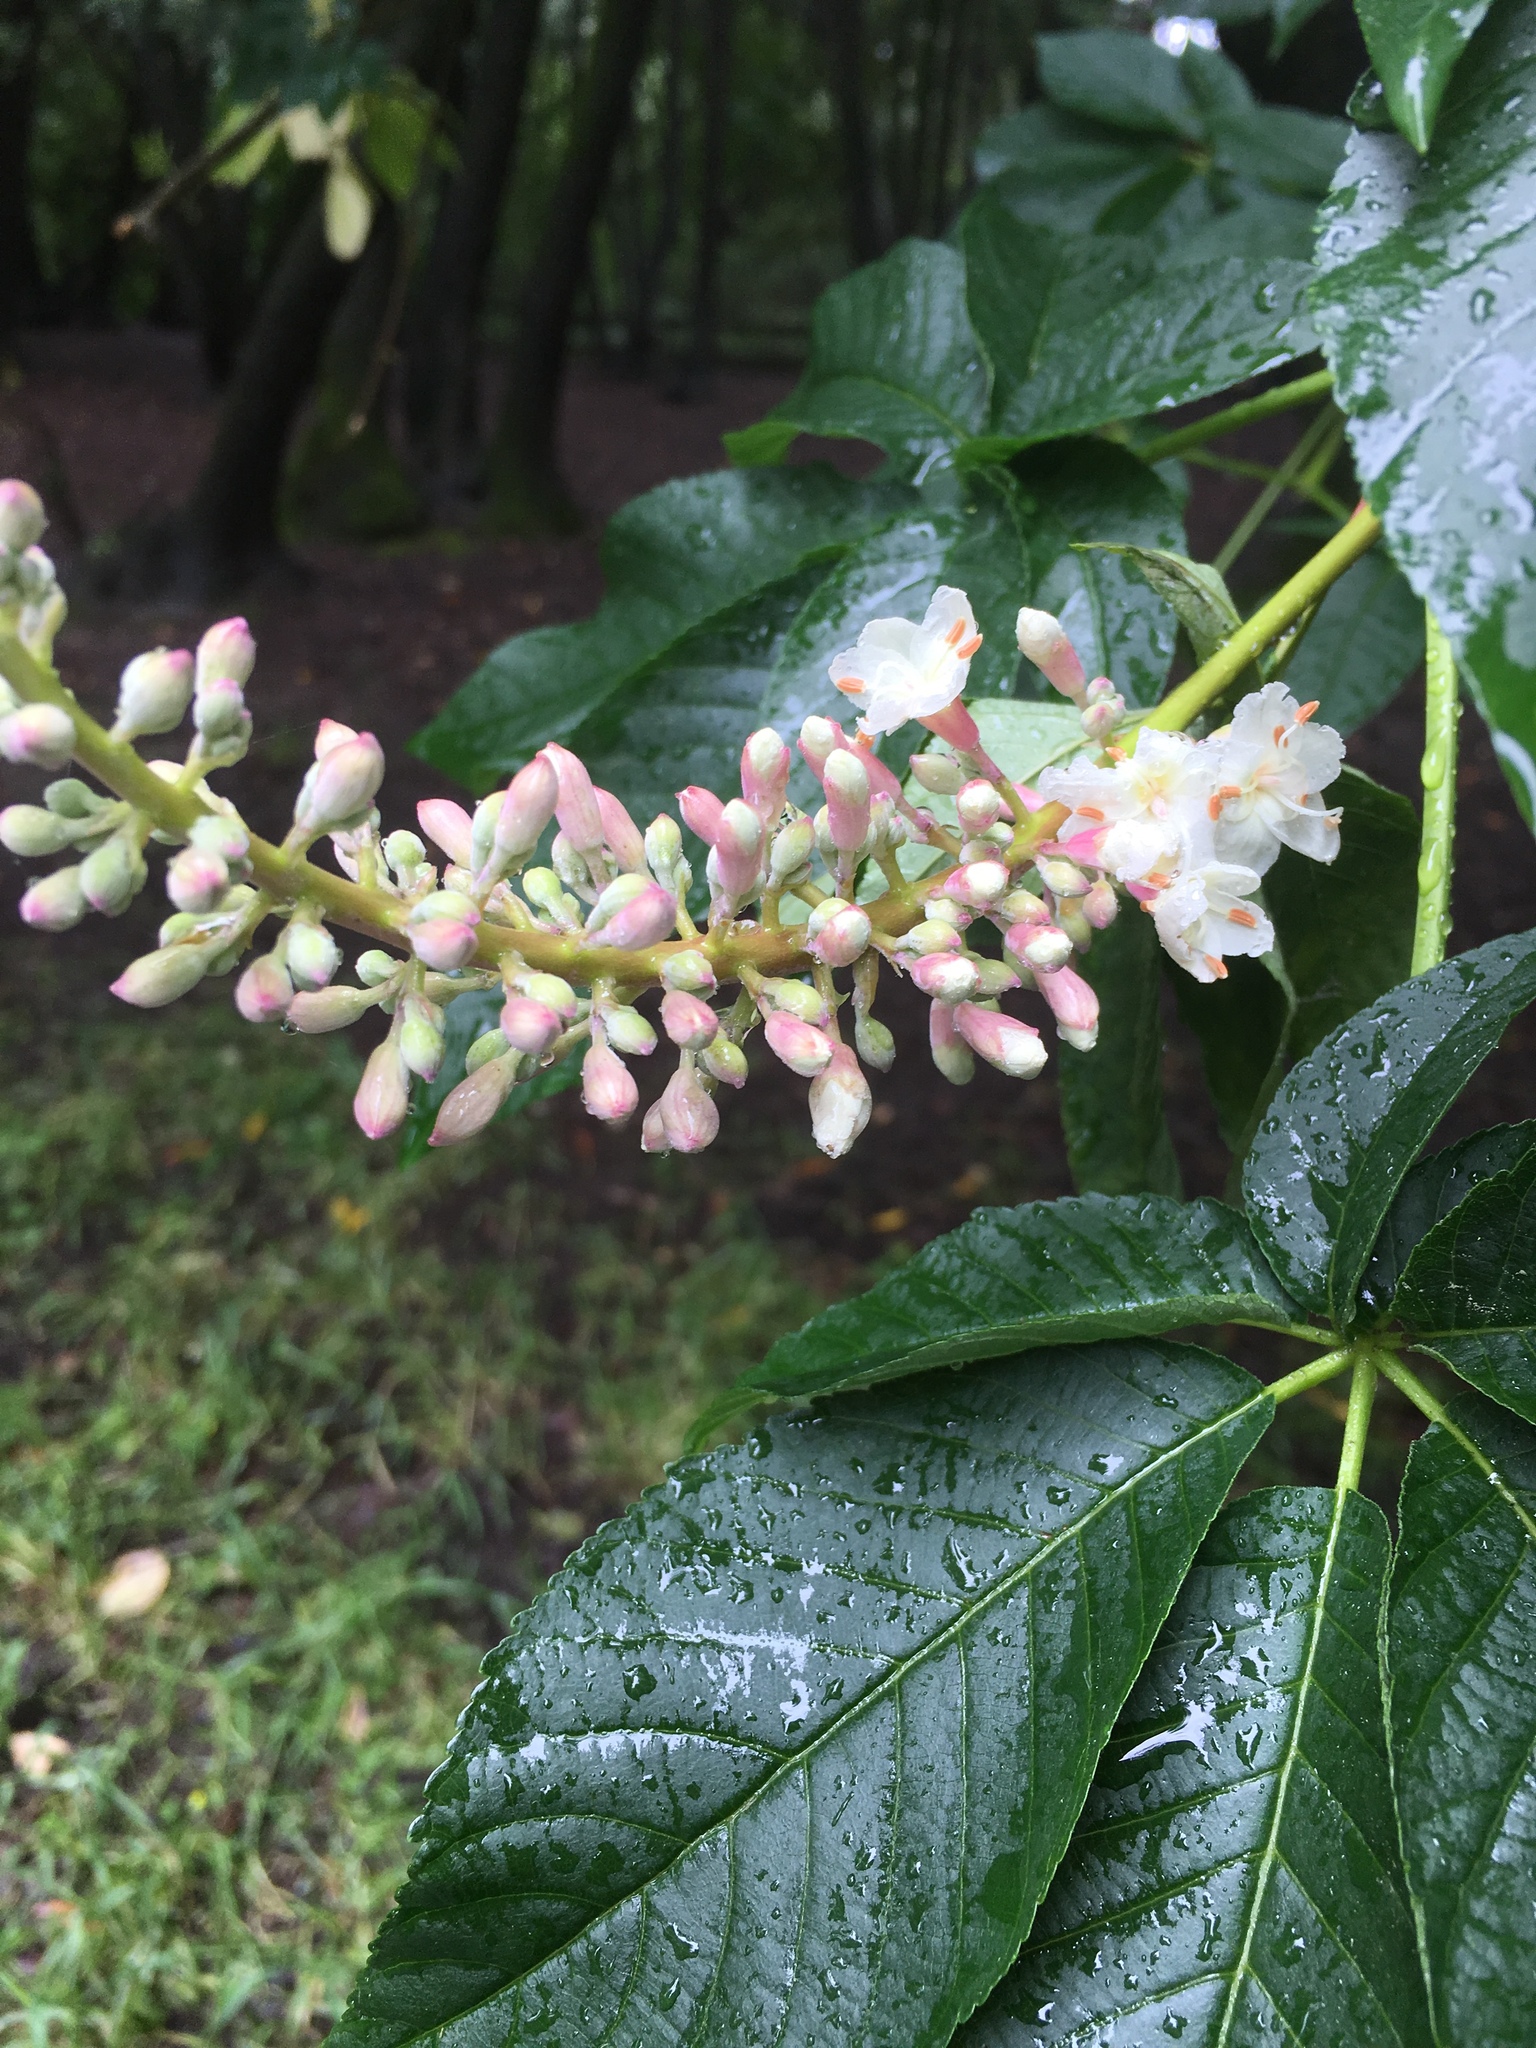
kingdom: Plantae
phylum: Tracheophyta
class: Magnoliopsida
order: Sapindales
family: Sapindaceae
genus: Aesculus
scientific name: Aesculus californica
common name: California buckeye
